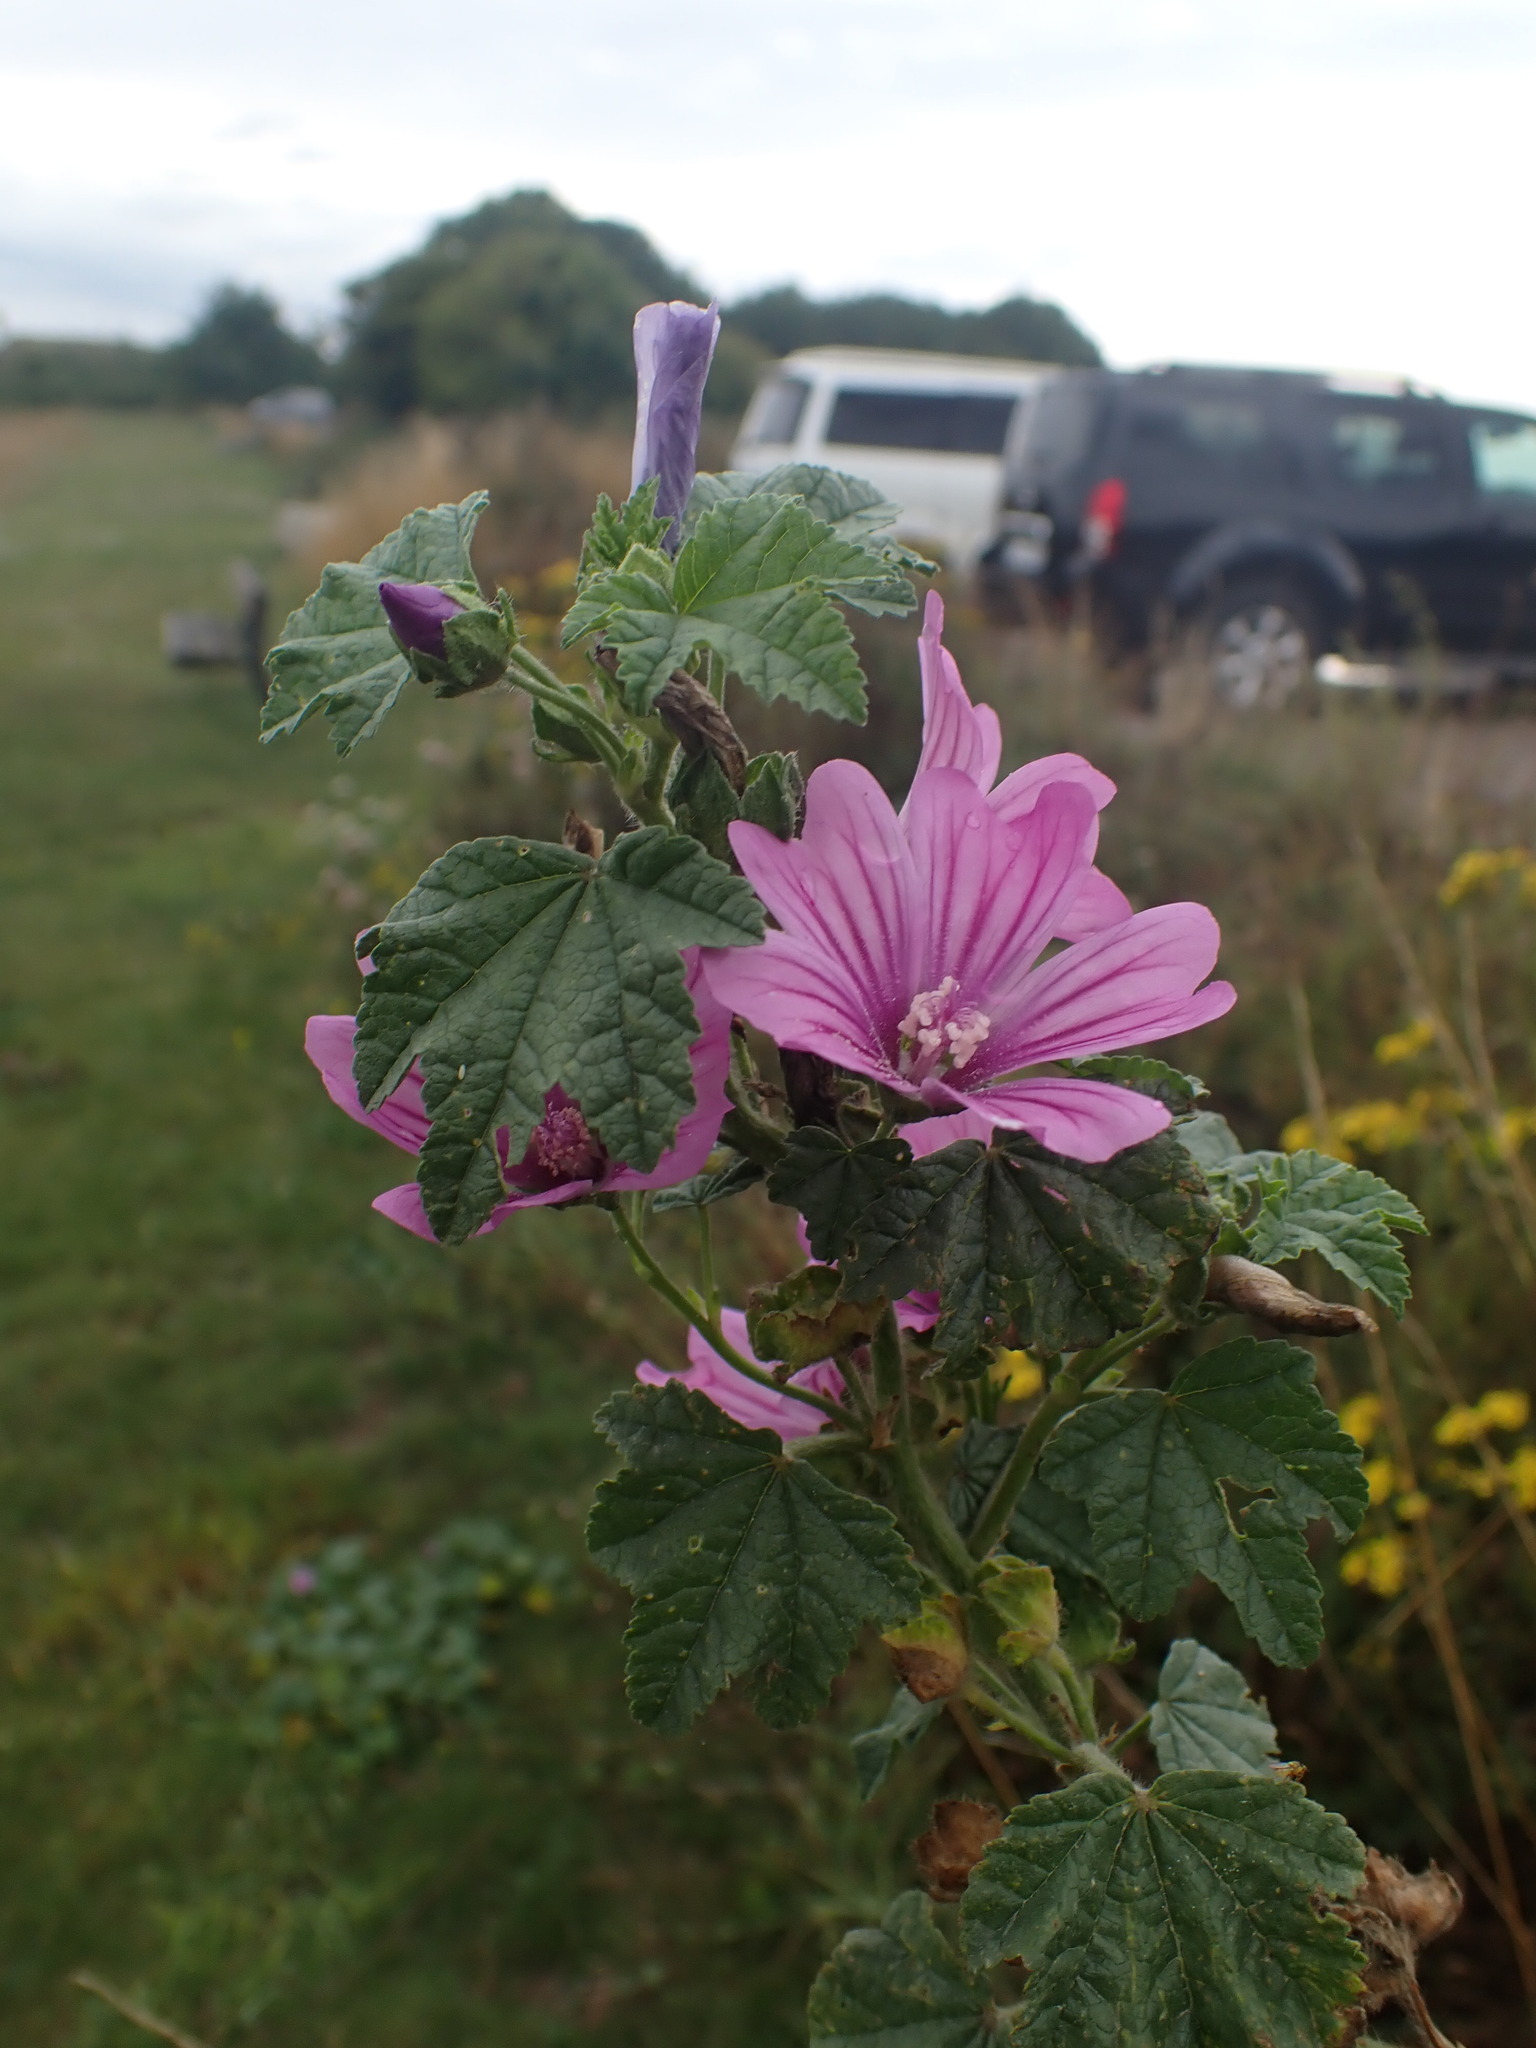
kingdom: Plantae
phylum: Tracheophyta
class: Magnoliopsida
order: Malvales
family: Malvaceae
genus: Malva
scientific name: Malva sylvestris
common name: Common mallow
